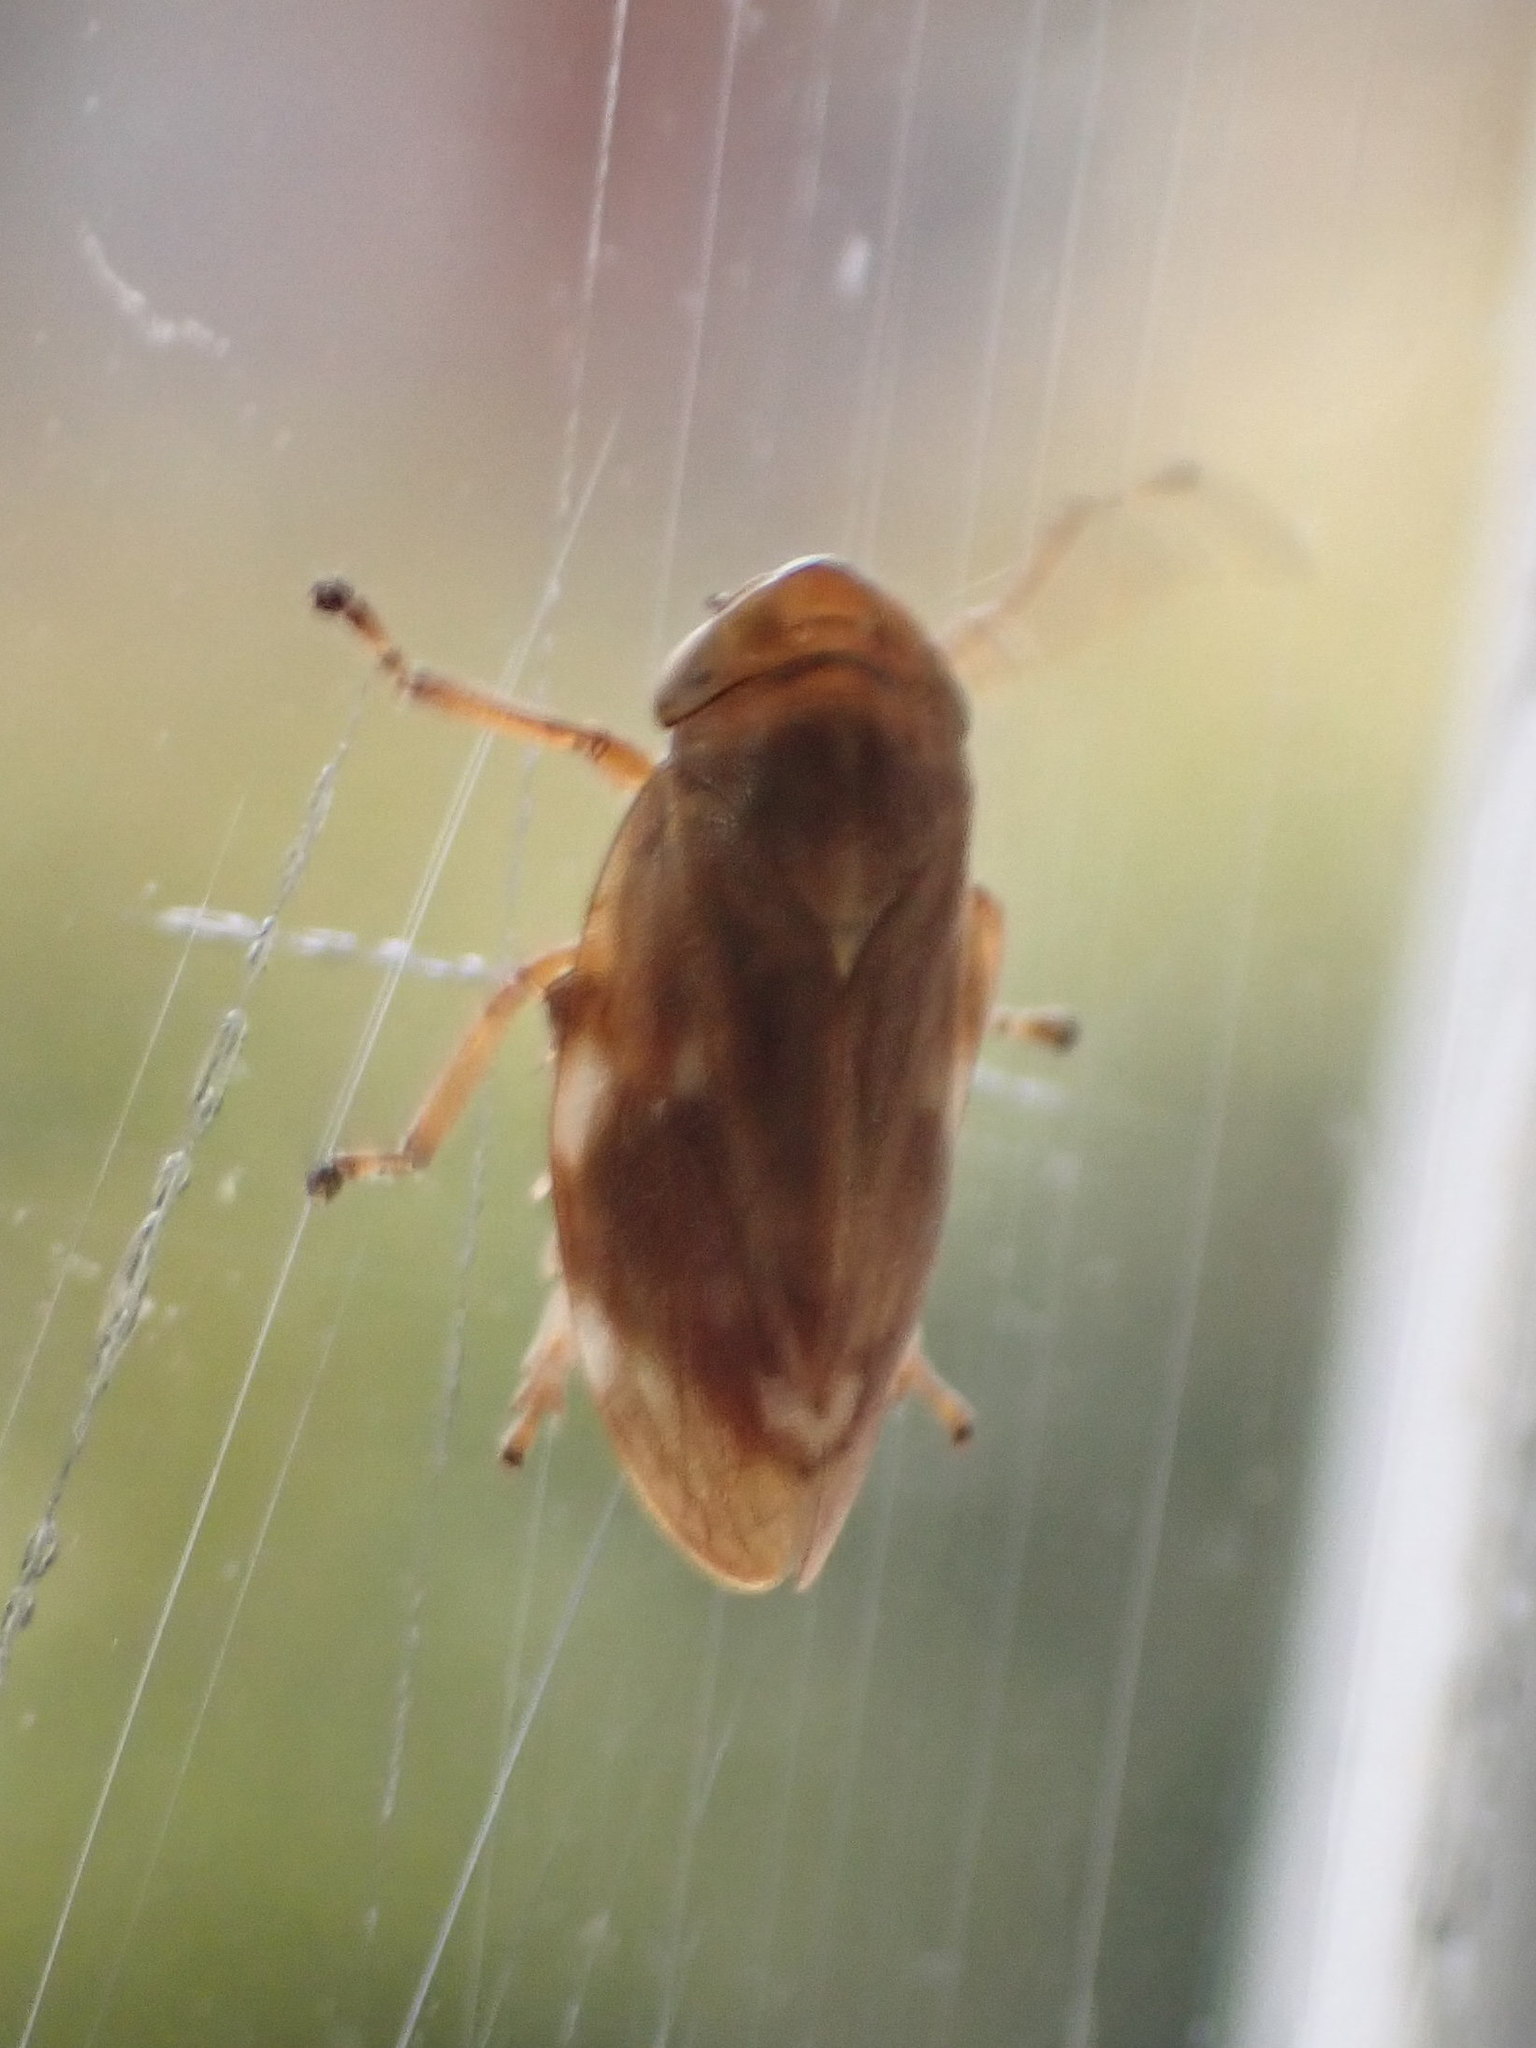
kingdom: Animalia
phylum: Arthropoda
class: Insecta
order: Hemiptera
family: Aphrophoridae
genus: Philaenus
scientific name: Philaenus spumarius
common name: Meadow spittlebug
